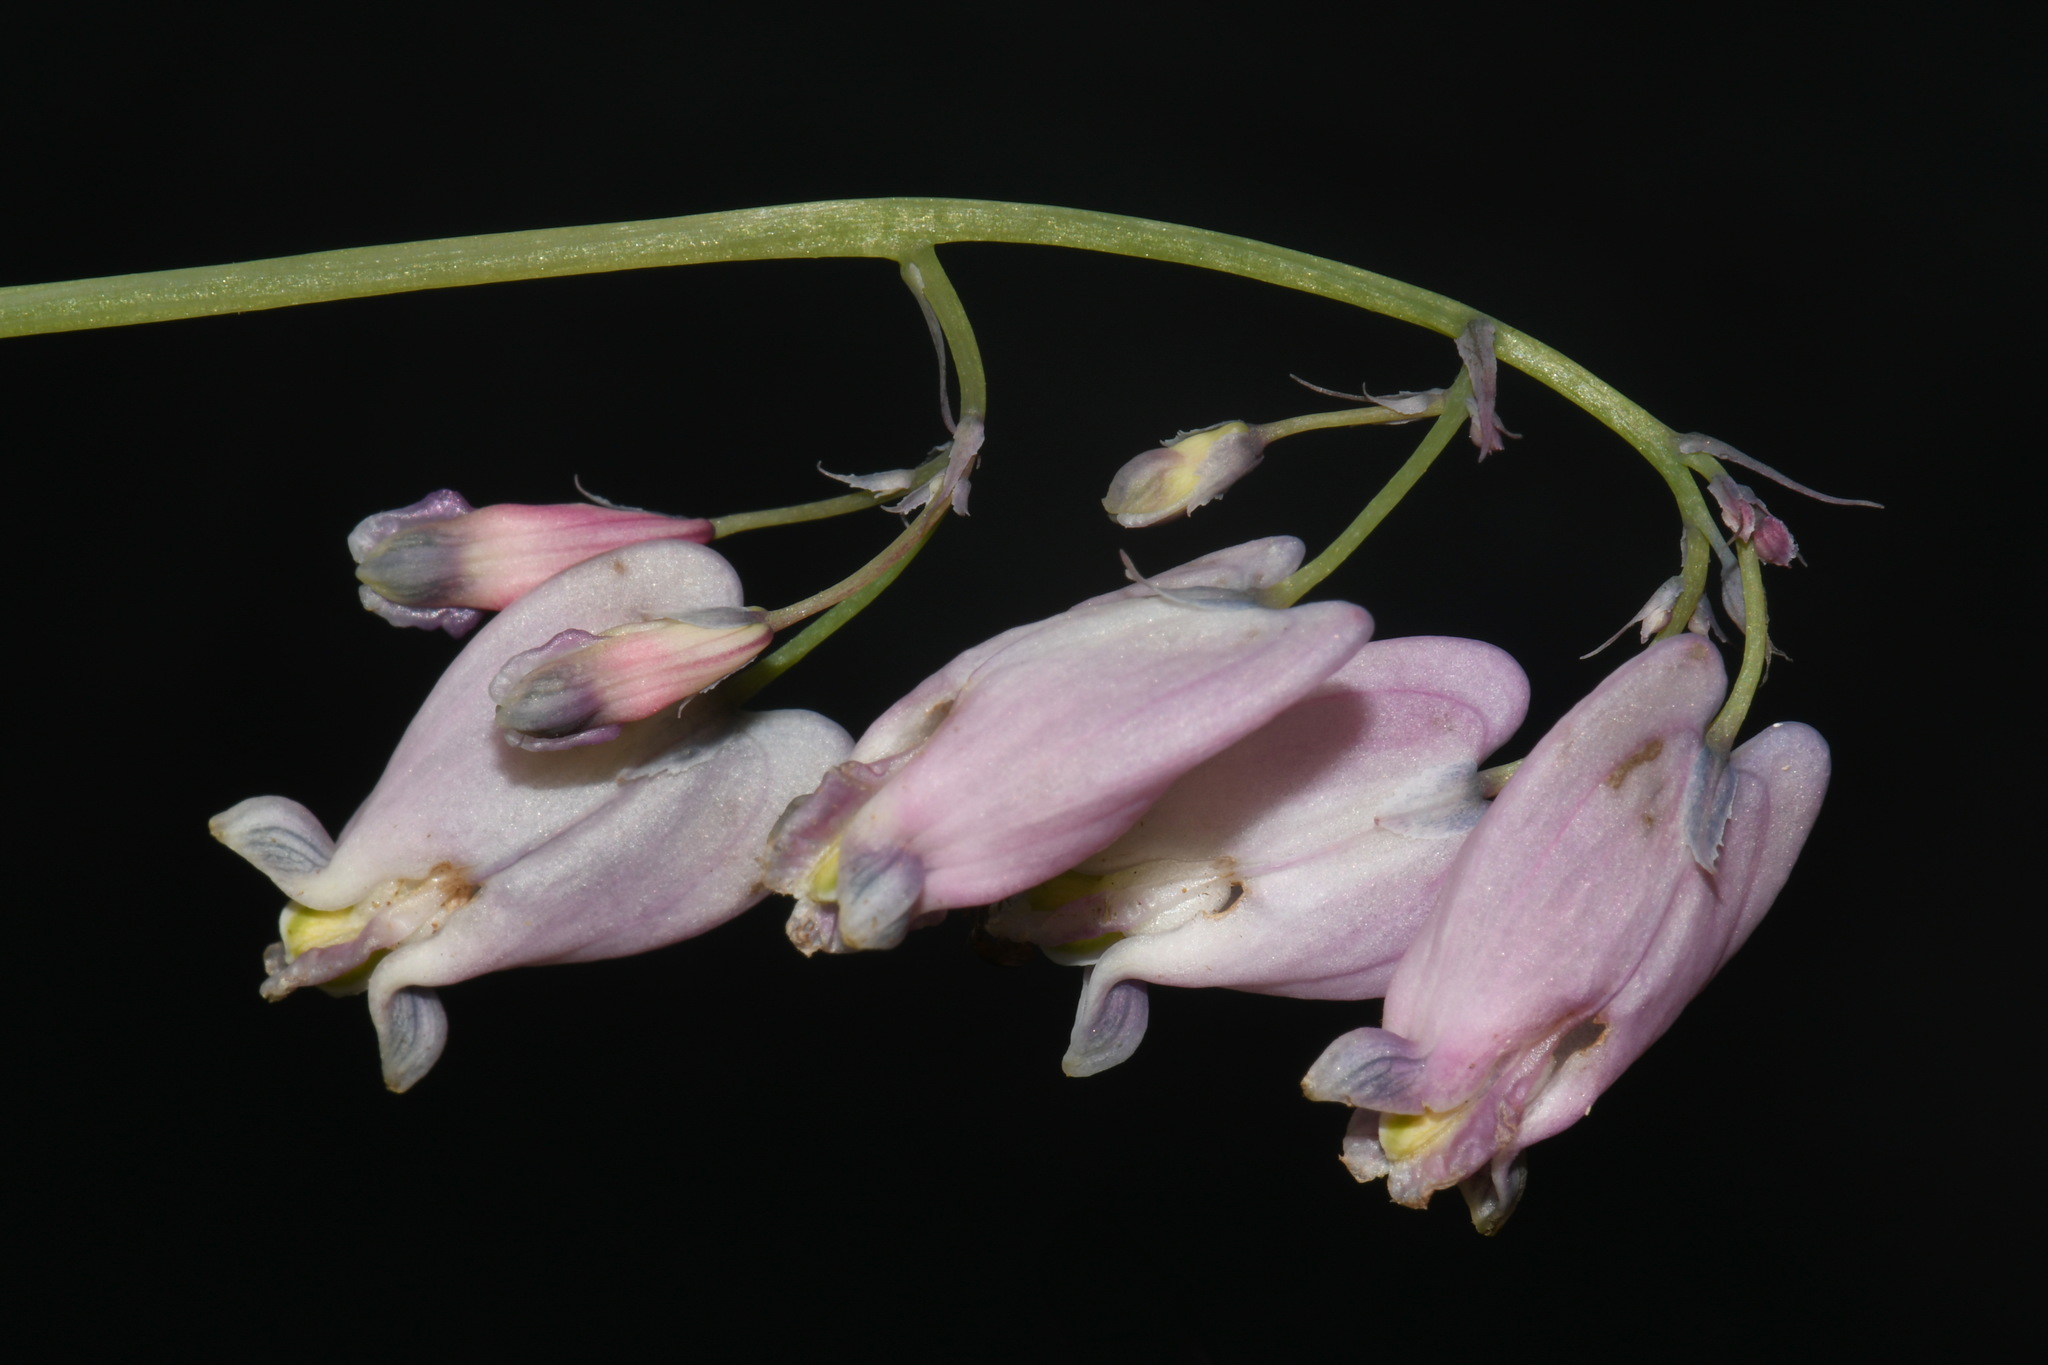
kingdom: Plantae
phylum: Tracheophyta
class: Magnoliopsida
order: Ranunculales
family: Papaveraceae
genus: Dicentra
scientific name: Dicentra formosa
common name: Bleeding-heart
